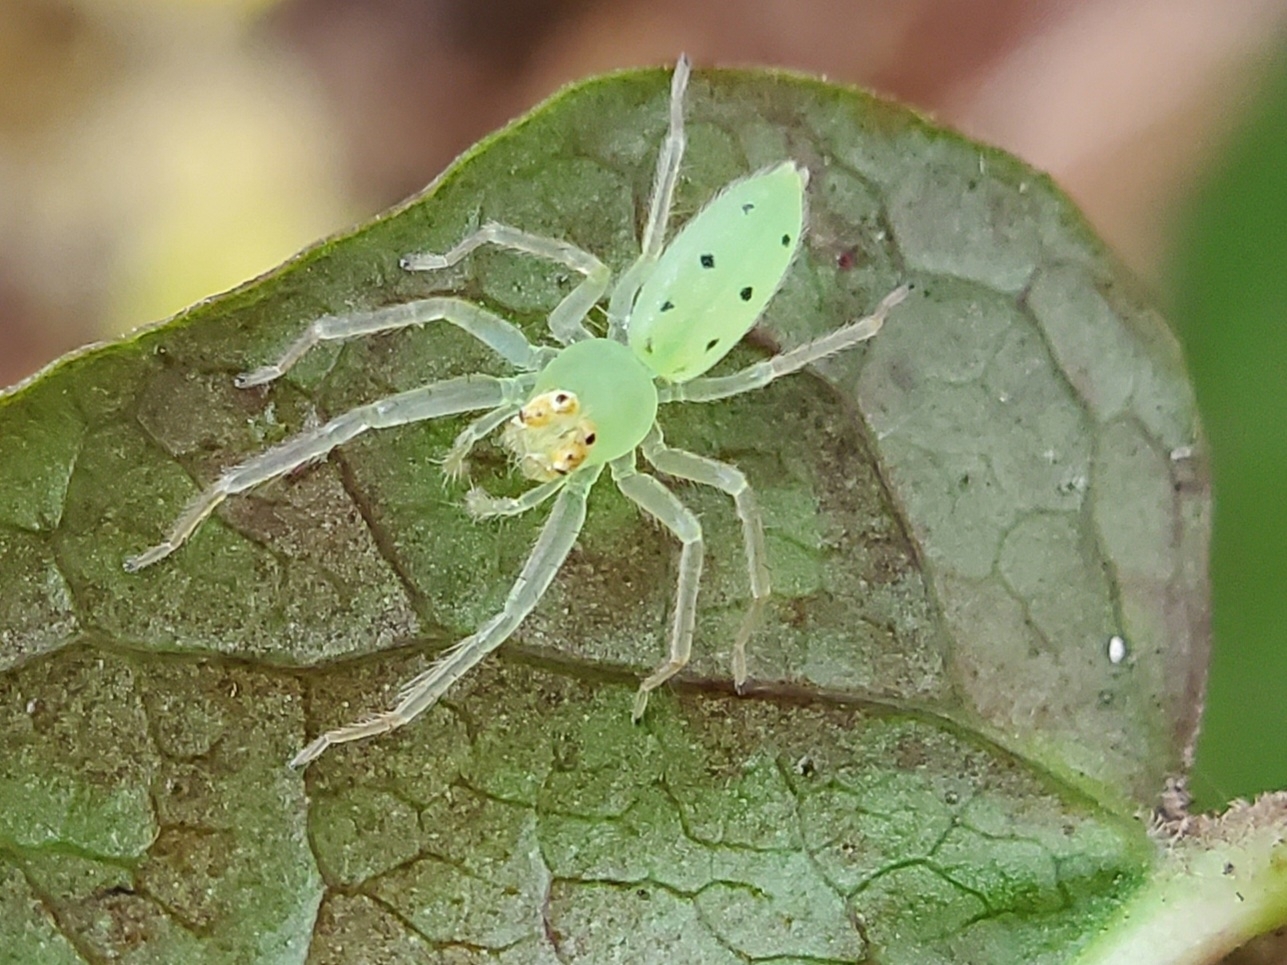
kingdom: Animalia
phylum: Arthropoda
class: Arachnida
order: Araneae
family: Salticidae
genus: Lyssomanes
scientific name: Lyssomanes viridis
